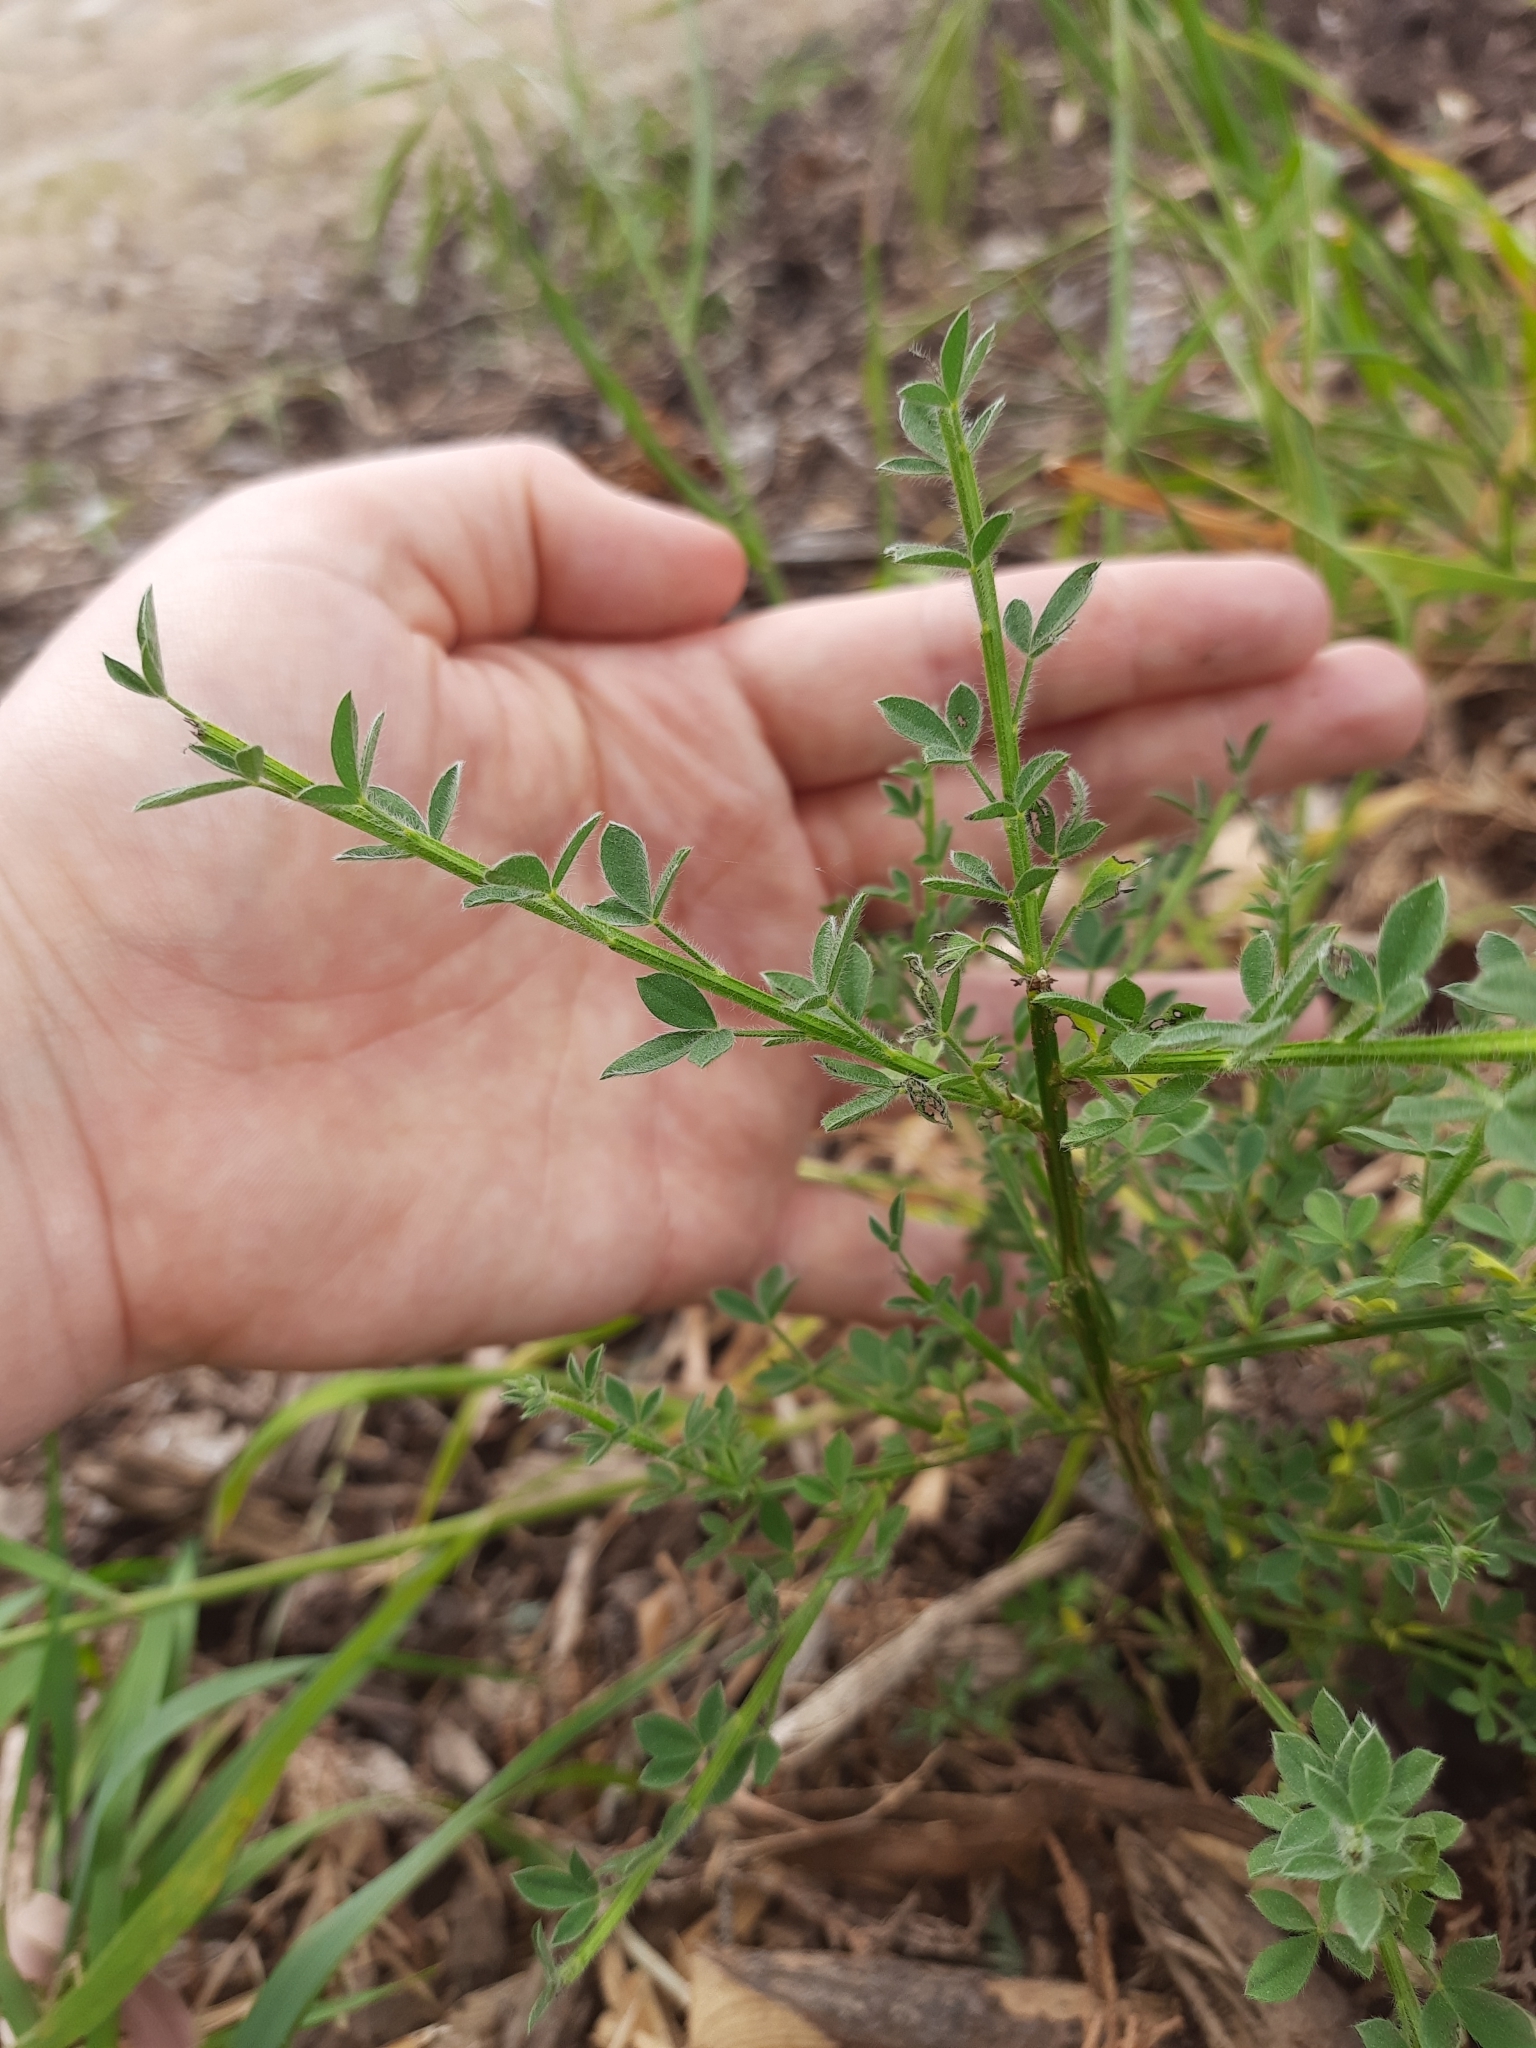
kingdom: Plantae
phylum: Tracheophyta
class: Magnoliopsida
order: Fabales
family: Fabaceae
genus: Cytisus
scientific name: Cytisus scoparius
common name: Scotch broom
